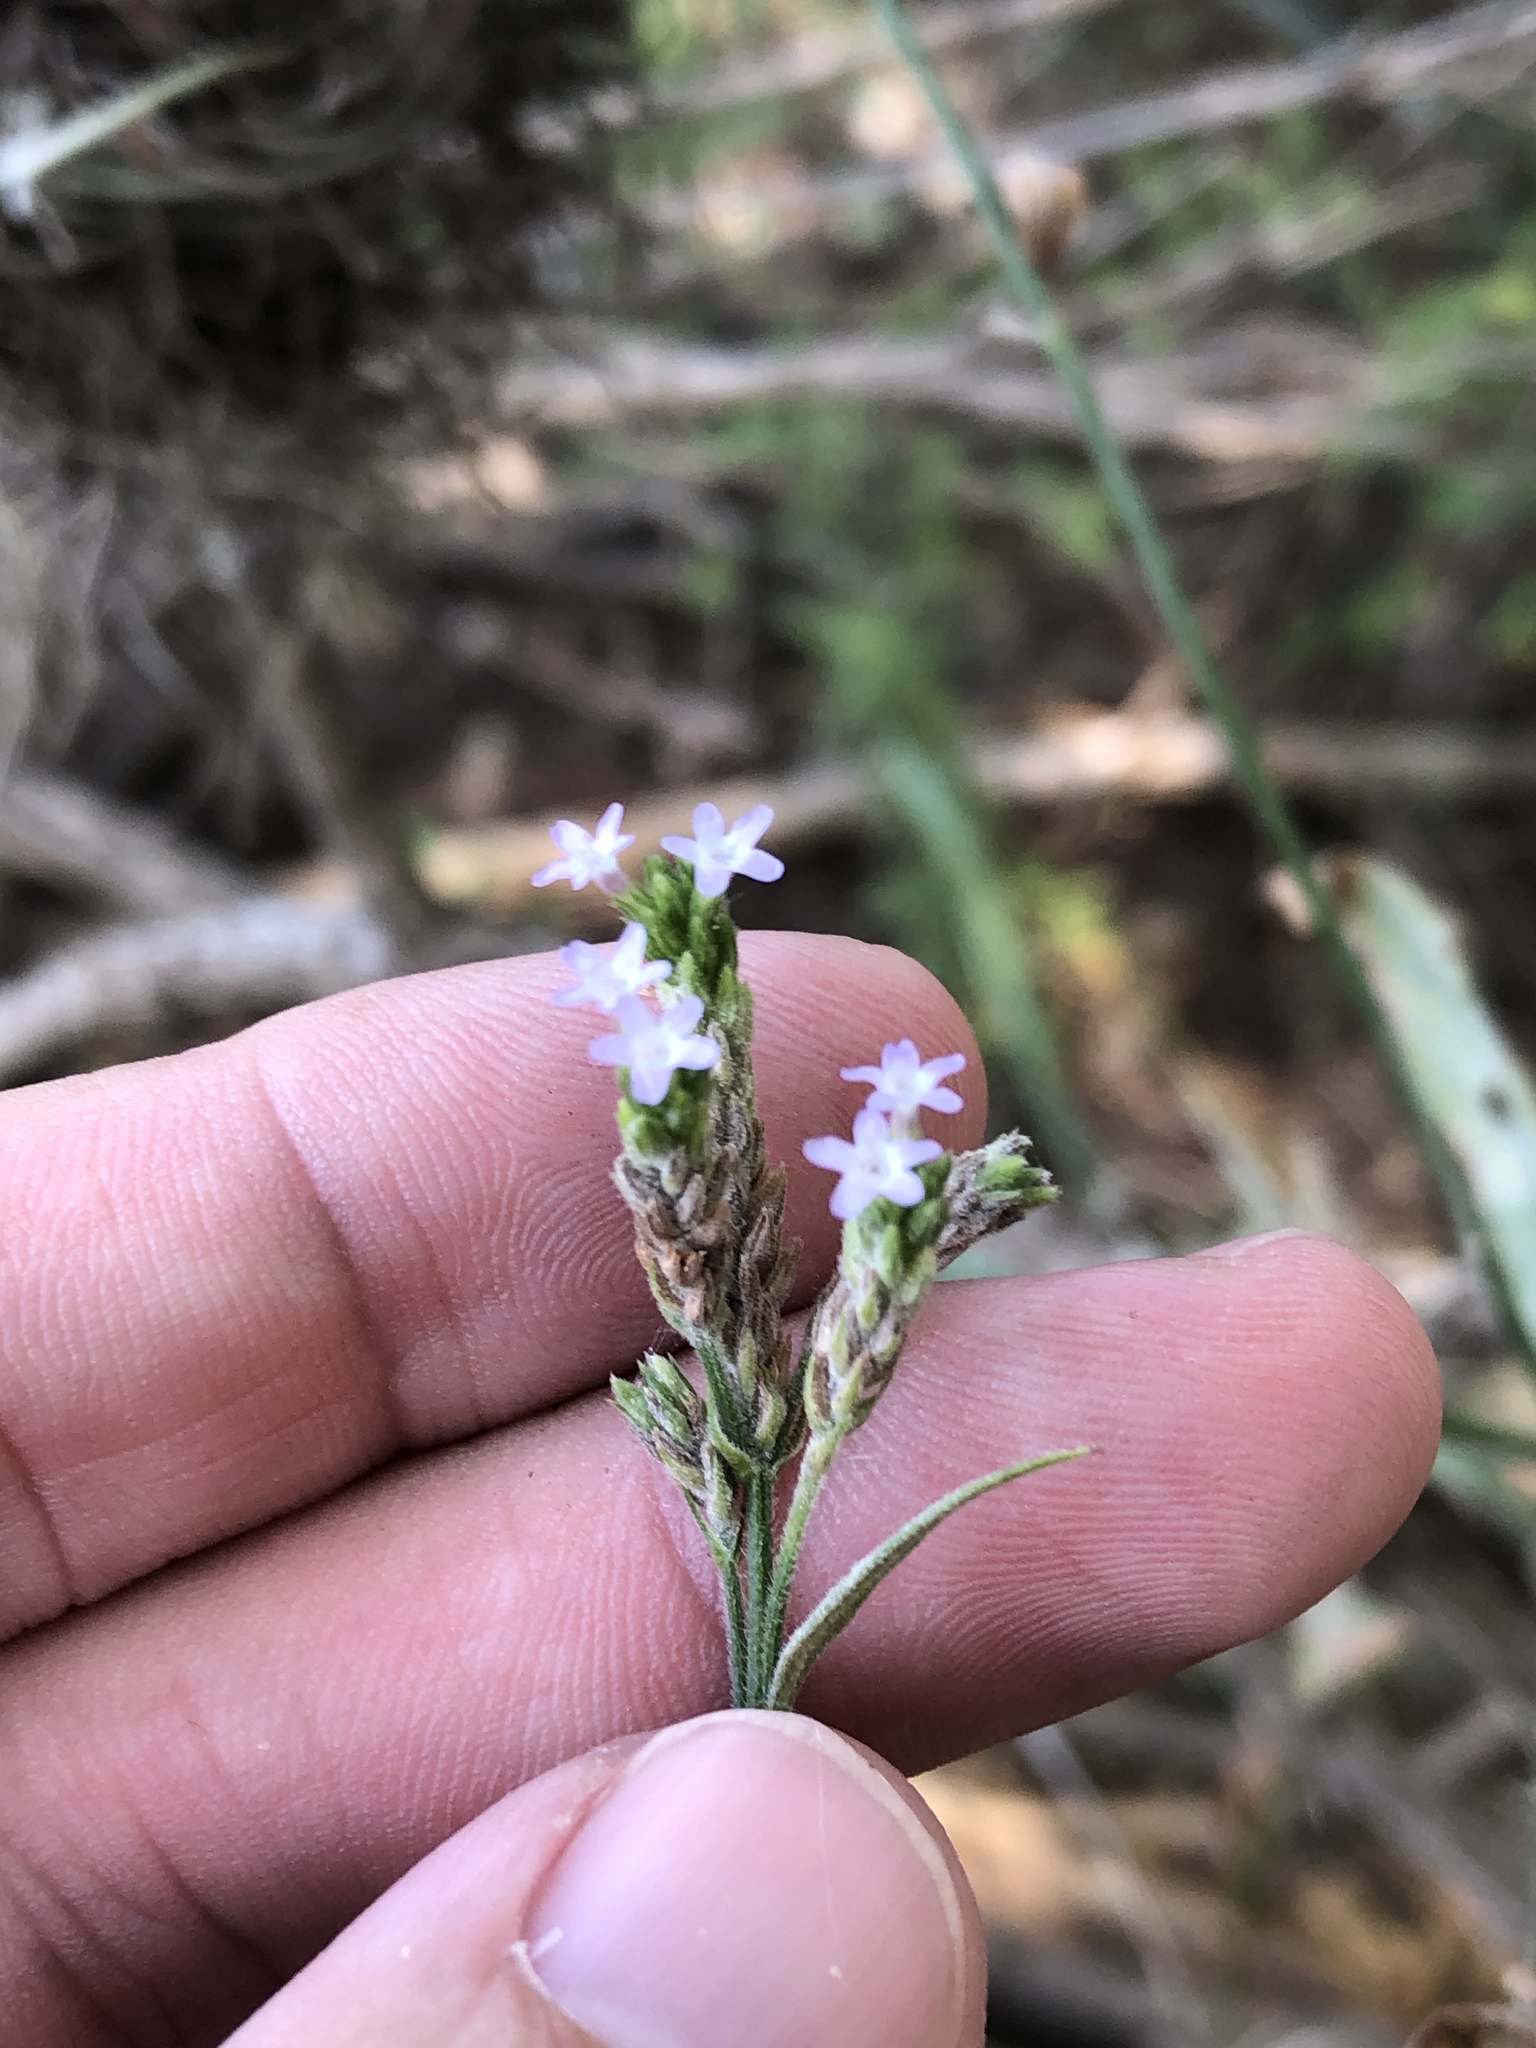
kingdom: Plantae
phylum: Tracheophyta
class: Magnoliopsida
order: Lamiales
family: Verbenaceae
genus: Verbena
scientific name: Verbena brasiliensis
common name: Brazilian vervain
